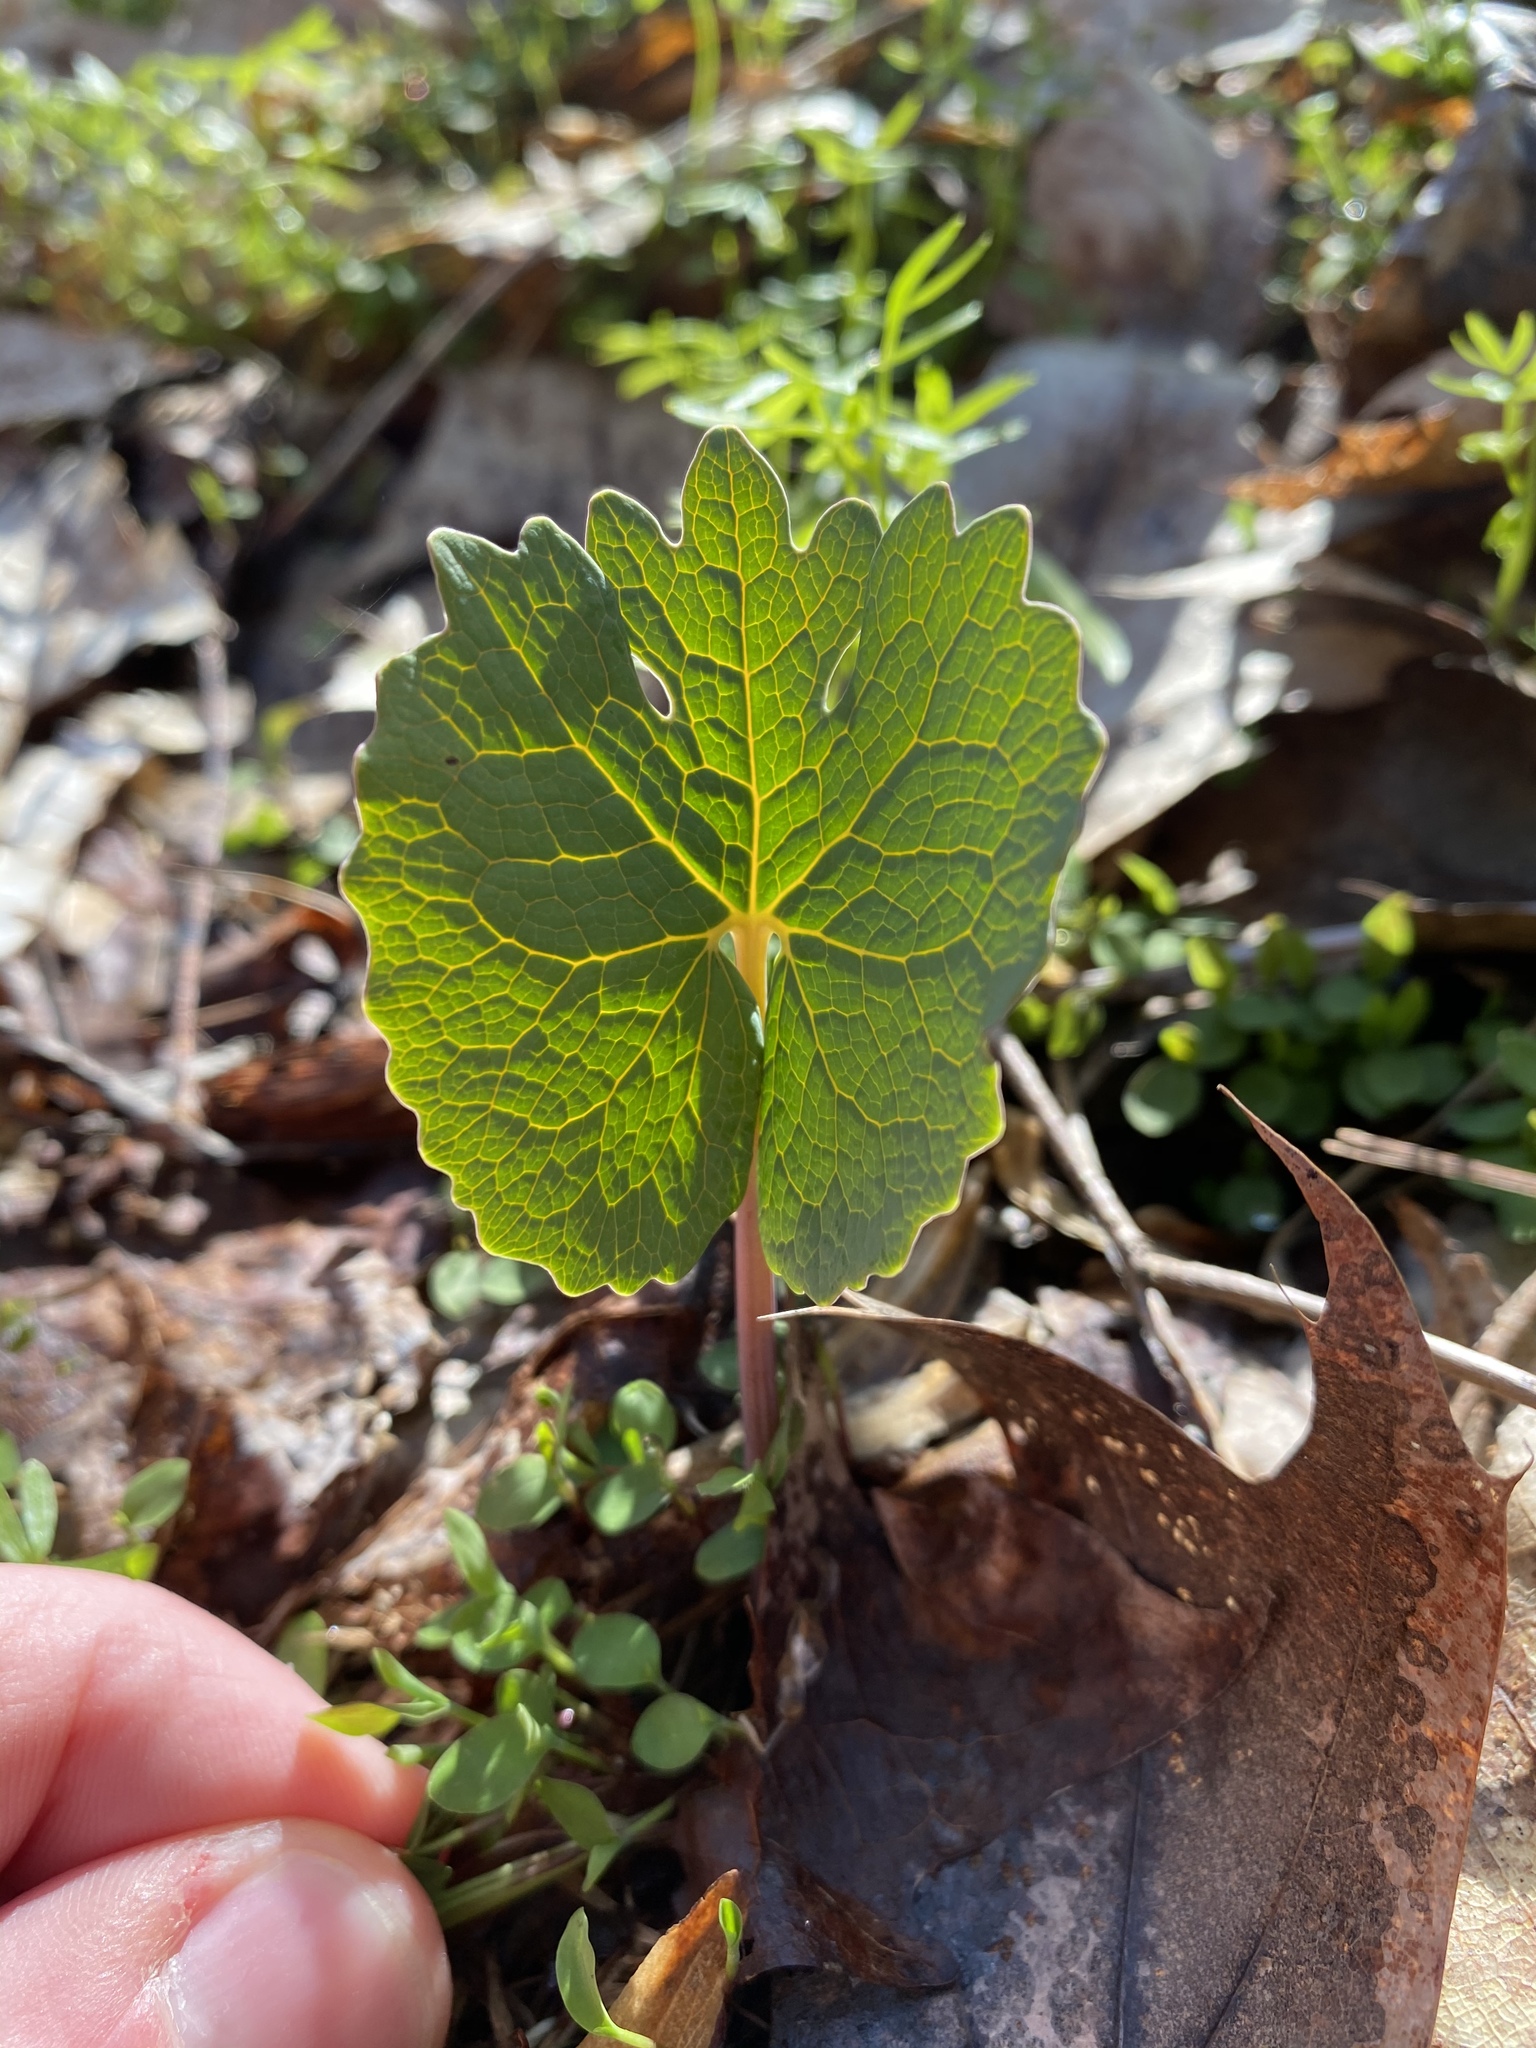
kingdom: Plantae
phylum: Tracheophyta
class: Magnoliopsida
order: Ranunculales
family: Papaveraceae
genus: Sanguinaria
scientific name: Sanguinaria canadensis
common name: Bloodroot
